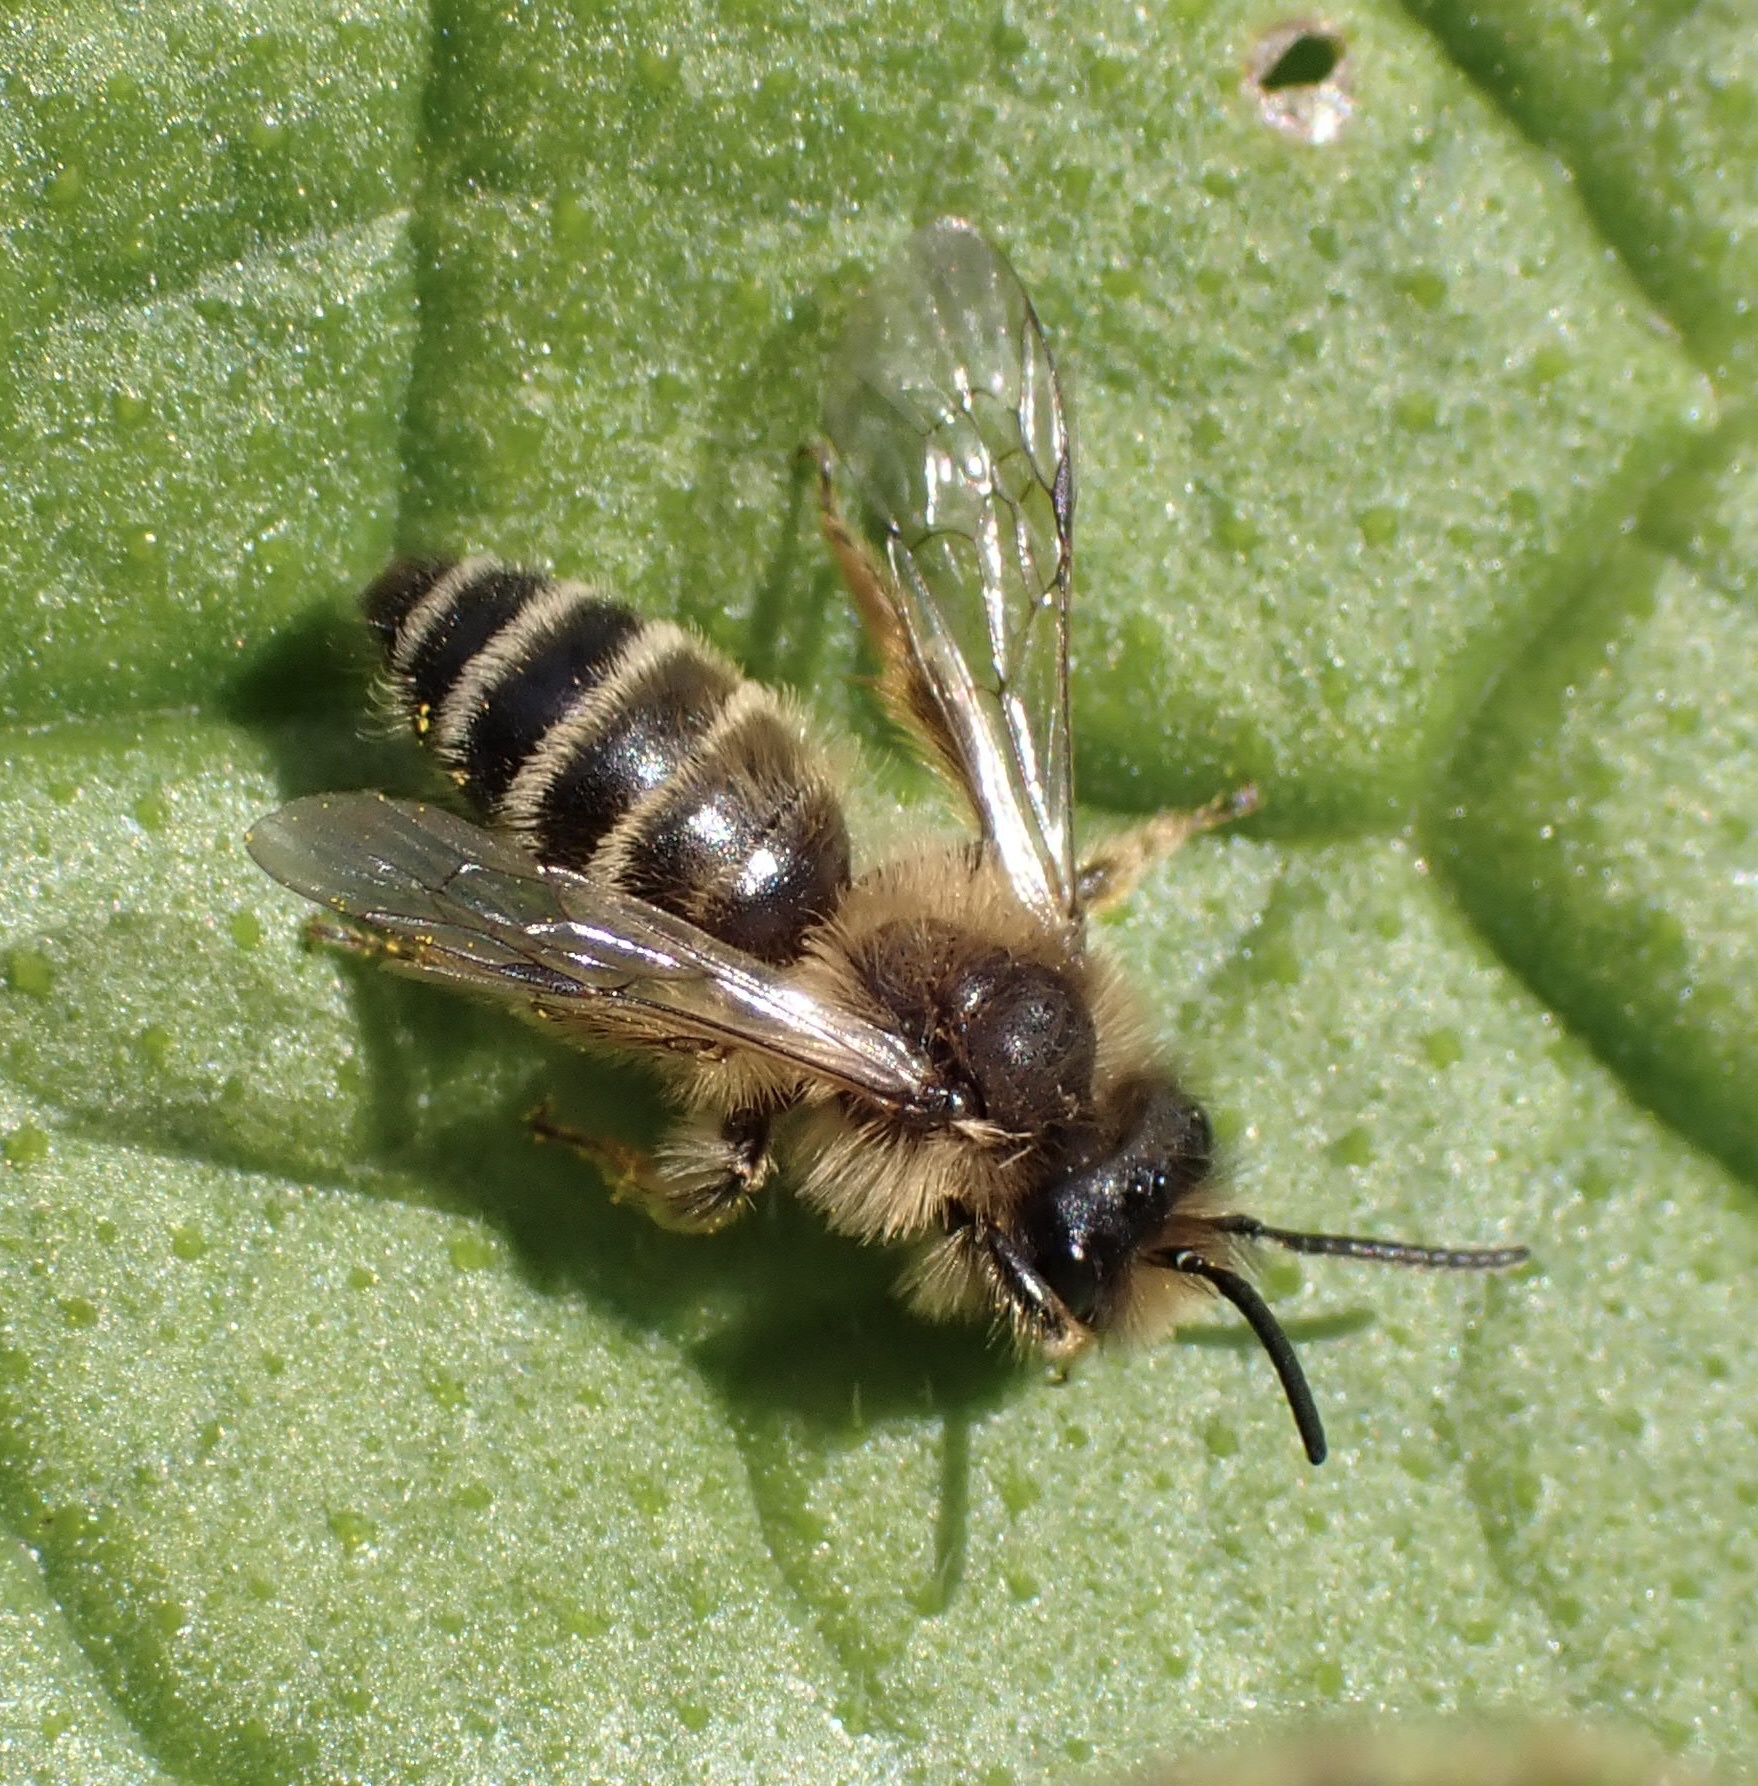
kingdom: Animalia
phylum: Arthropoda
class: Insecta
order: Hymenoptera
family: Andrenidae
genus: Andrena
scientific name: Andrena flavipes
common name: Yellow-legged mining bee
